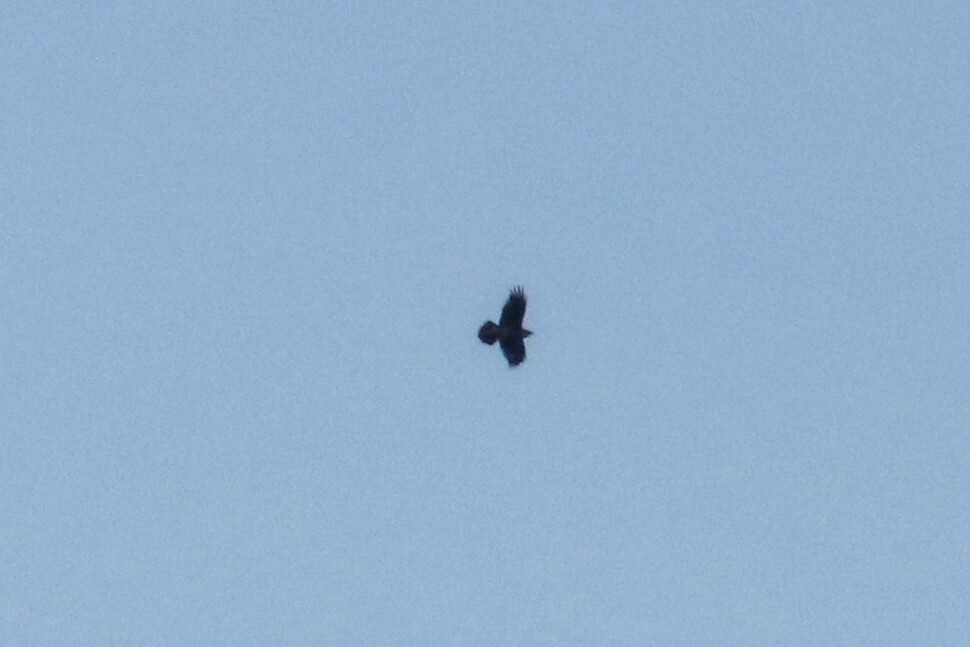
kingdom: Animalia
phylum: Chordata
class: Aves
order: Passeriformes
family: Corvidae
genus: Corvus
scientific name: Corvus corax
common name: Common raven
